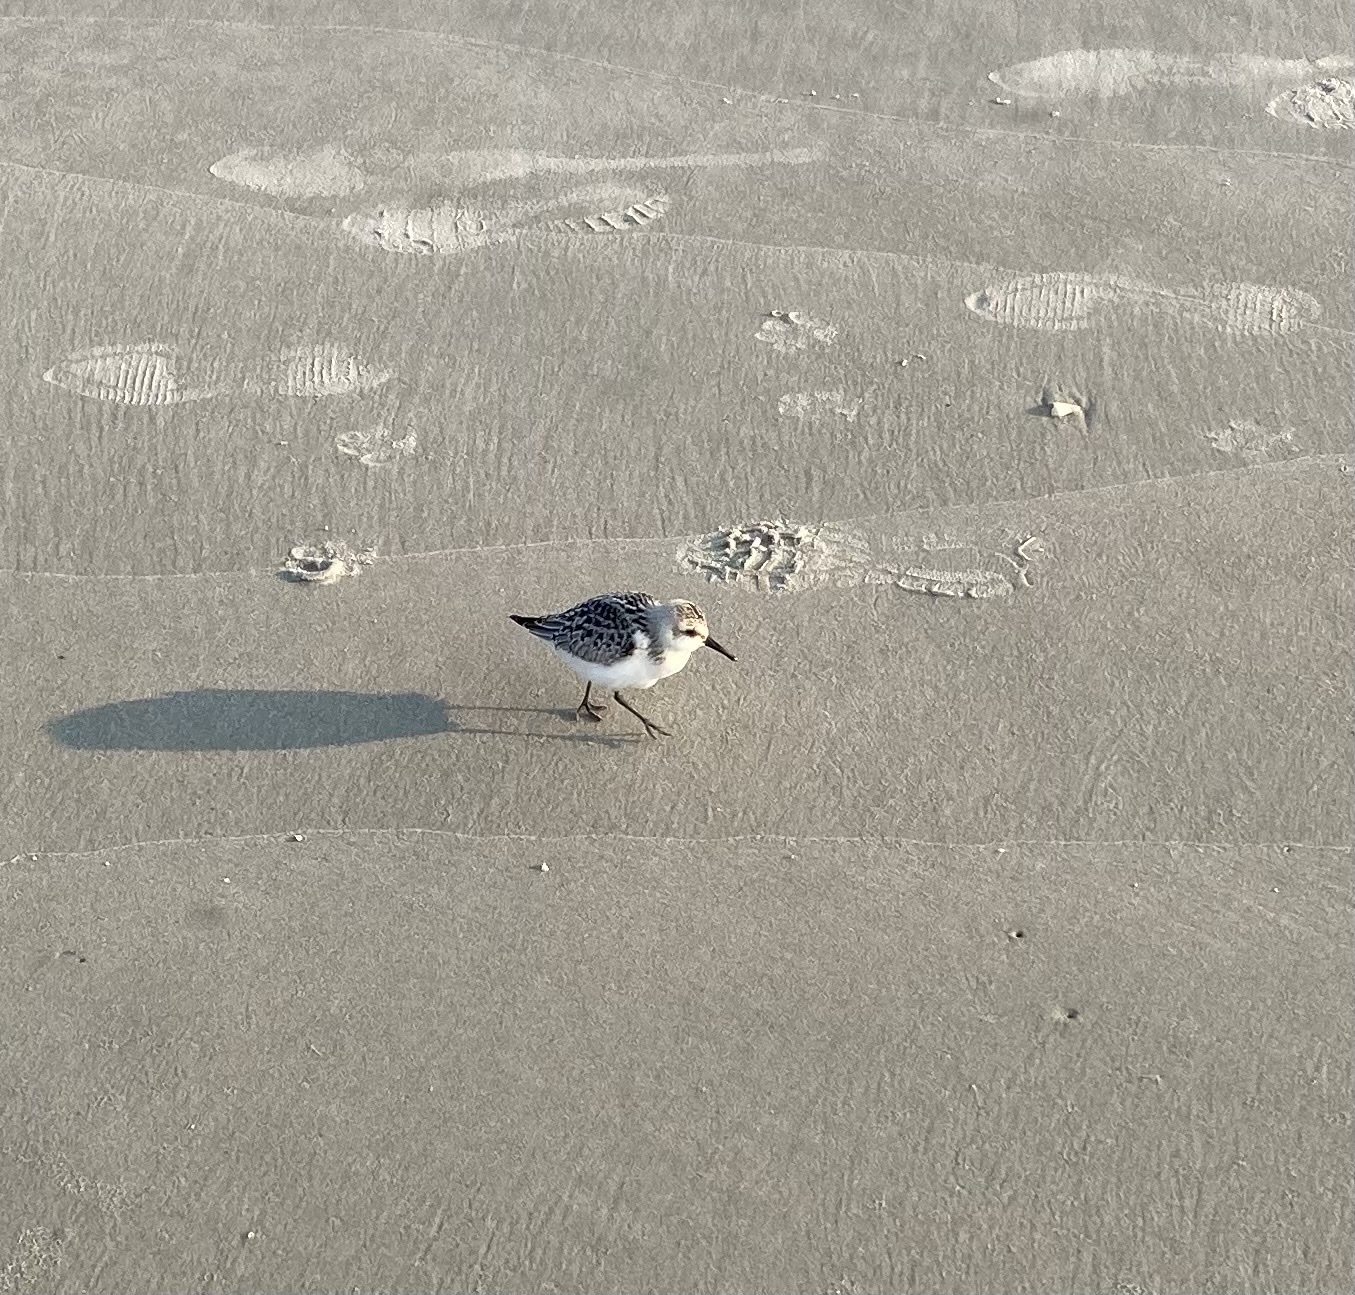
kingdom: Animalia
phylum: Chordata
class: Aves
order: Charadriiformes
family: Scolopacidae
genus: Calidris
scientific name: Calidris alba
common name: Sanderling
